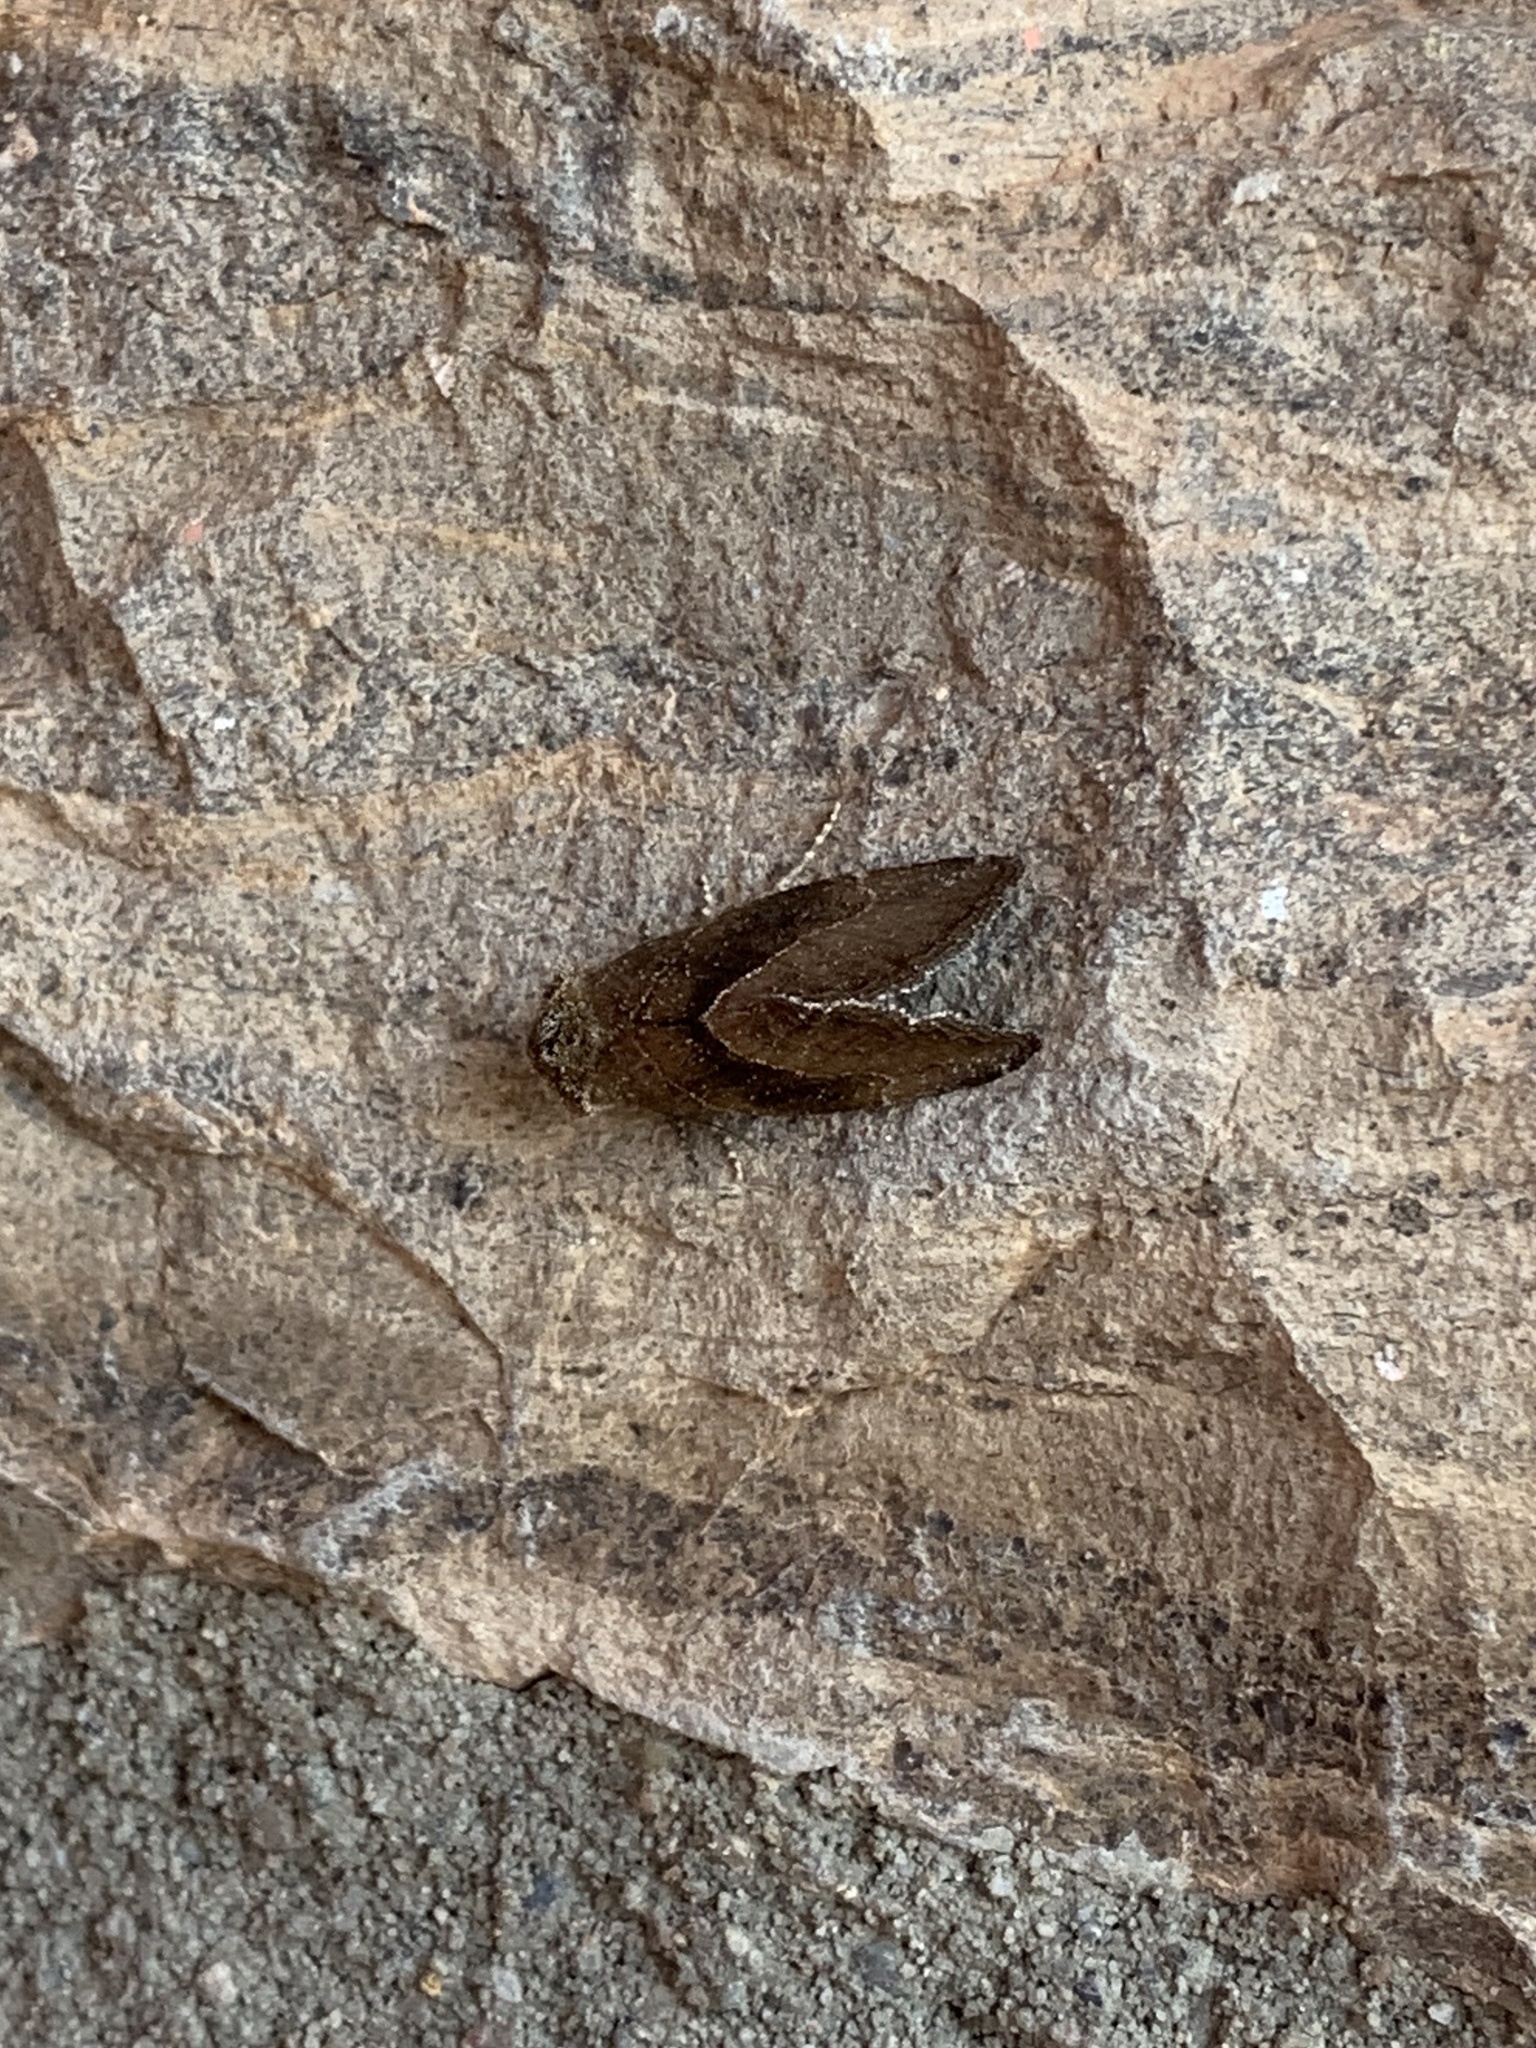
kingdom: Animalia
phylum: Arthropoda
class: Insecta
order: Lepidoptera
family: Noctuidae
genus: Plagiomimicus
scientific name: Plagiomimicus spumosum
